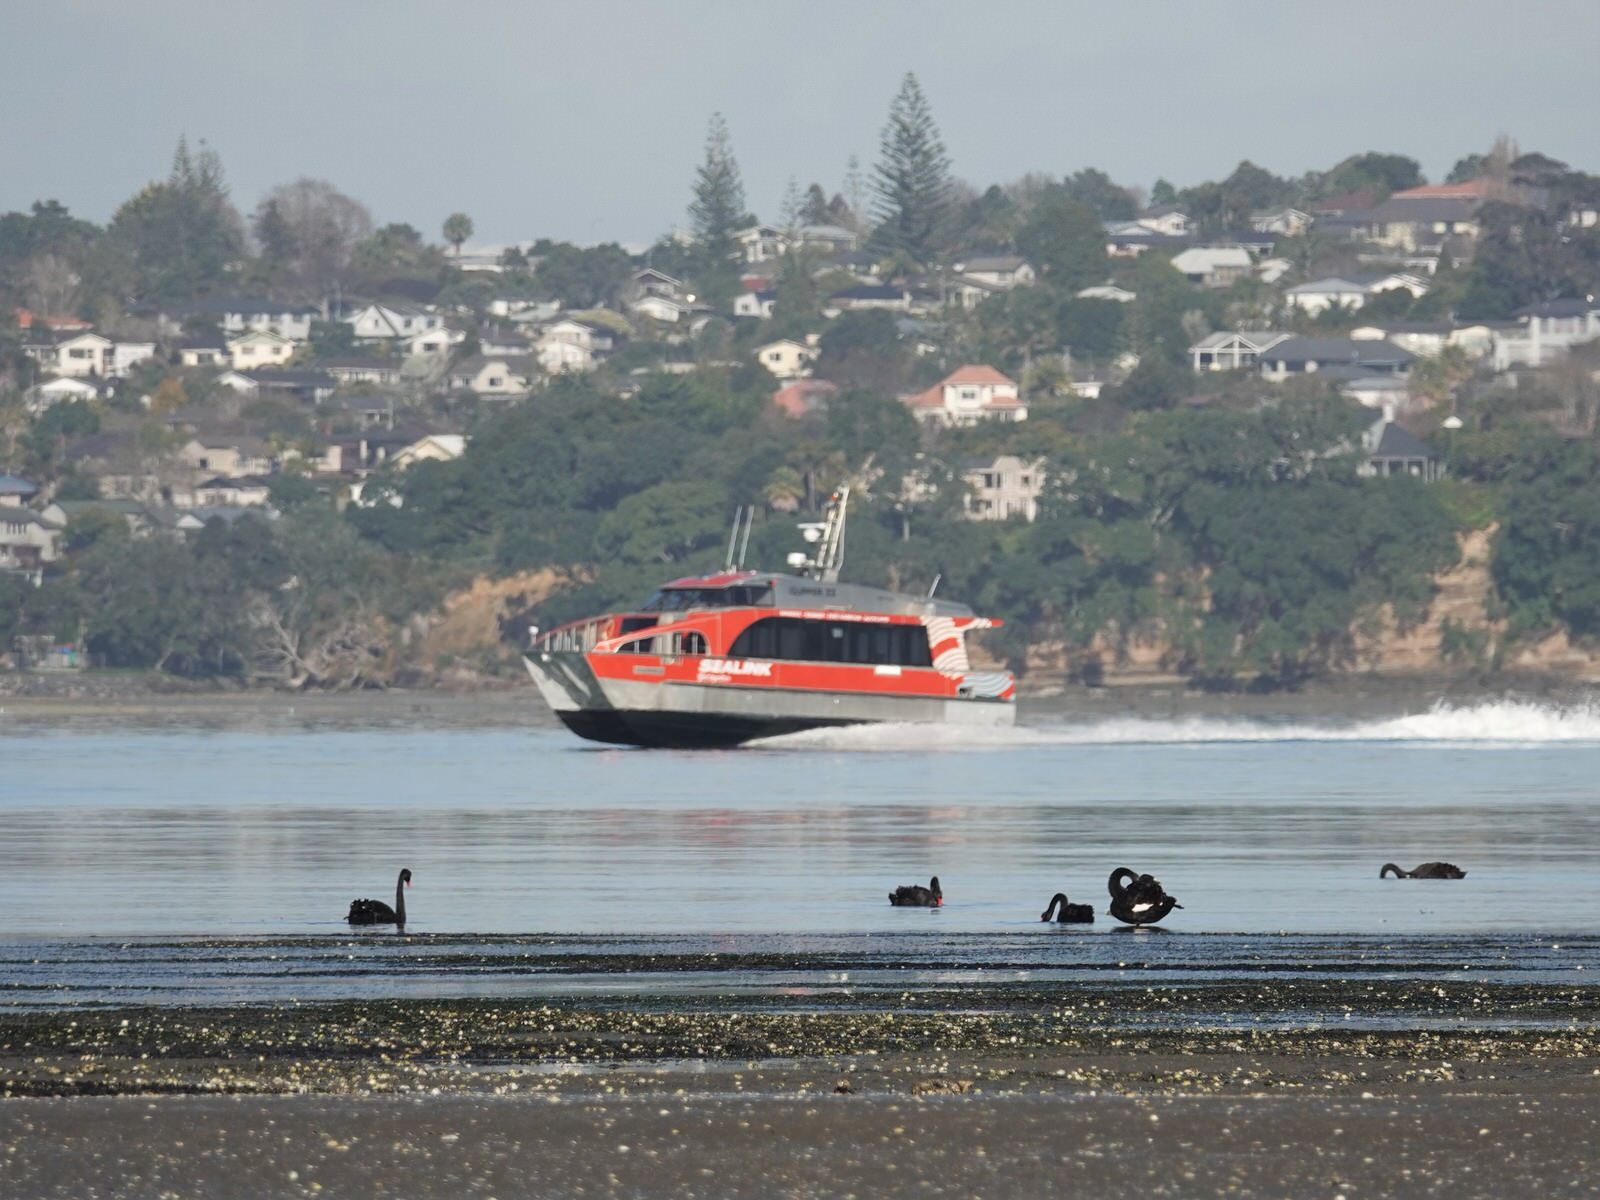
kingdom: Animalia
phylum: Chordata
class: Aves
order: Anseriformes
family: Anatidae
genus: Cygnus
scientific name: Cygnus atratus
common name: Black swan
